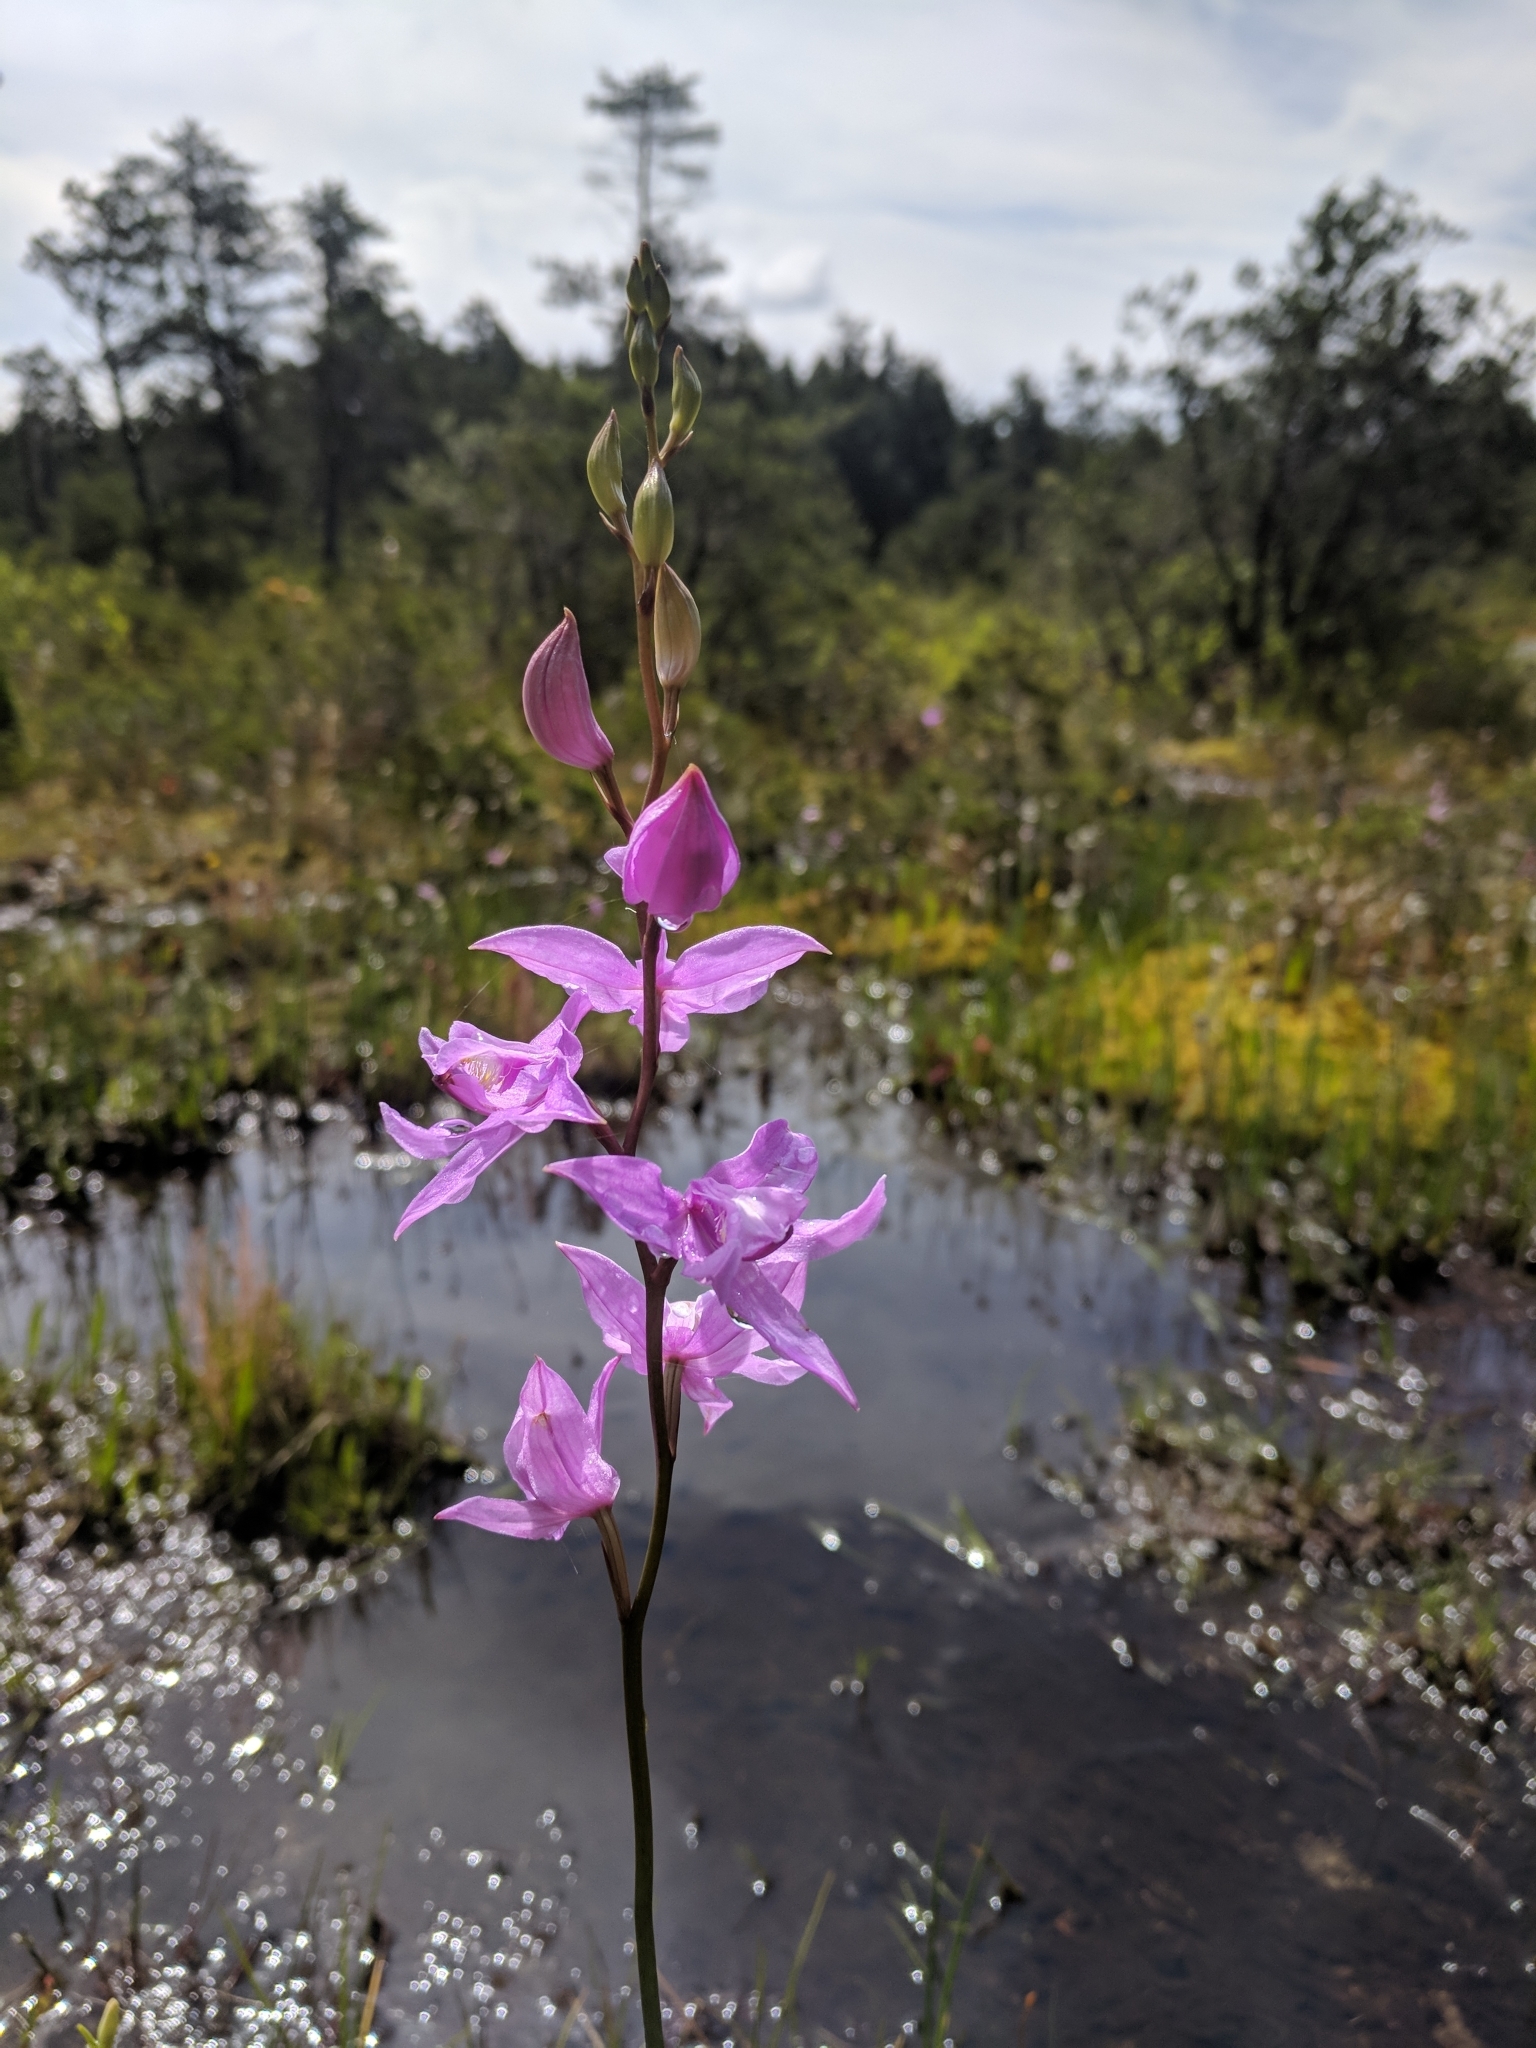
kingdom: Plantae
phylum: Tracheophyta
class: Liliopsida
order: Asparagales
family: Orchidaceae
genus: Calopogon
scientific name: Calopogon tuberosus
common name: Grass-pink
